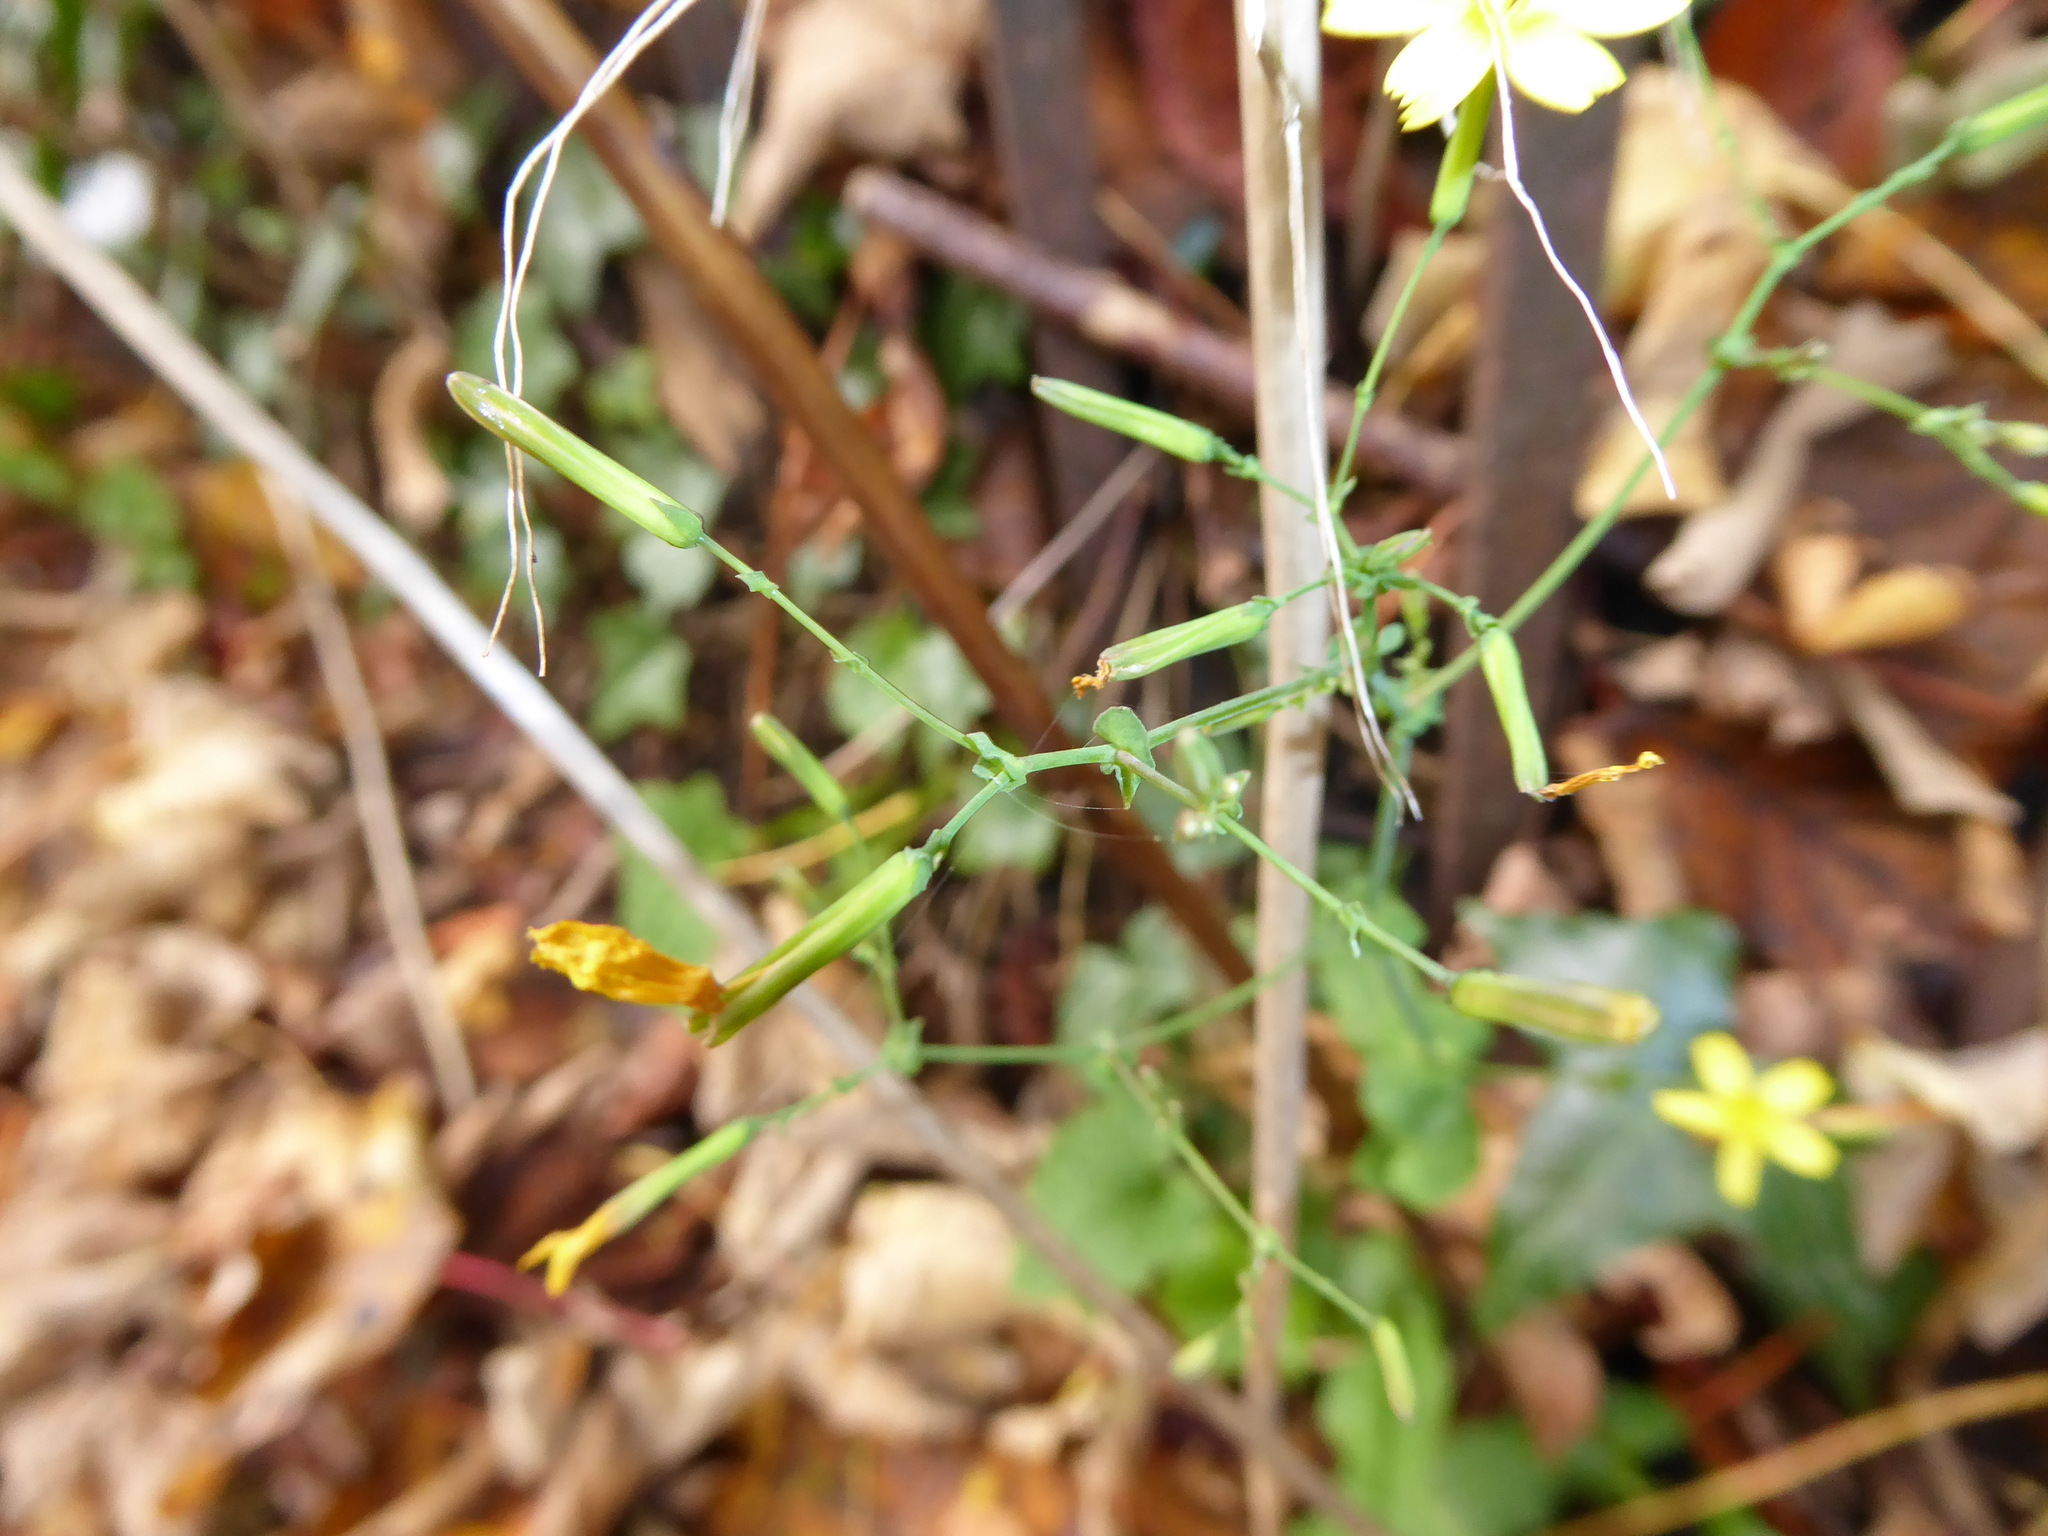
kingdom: Plantae
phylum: Tracheophyta
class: Magnoliopsida
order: Asterales
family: Asteraceae
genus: Mycelis
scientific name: Mycelis muralis
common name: Wall lettuce
